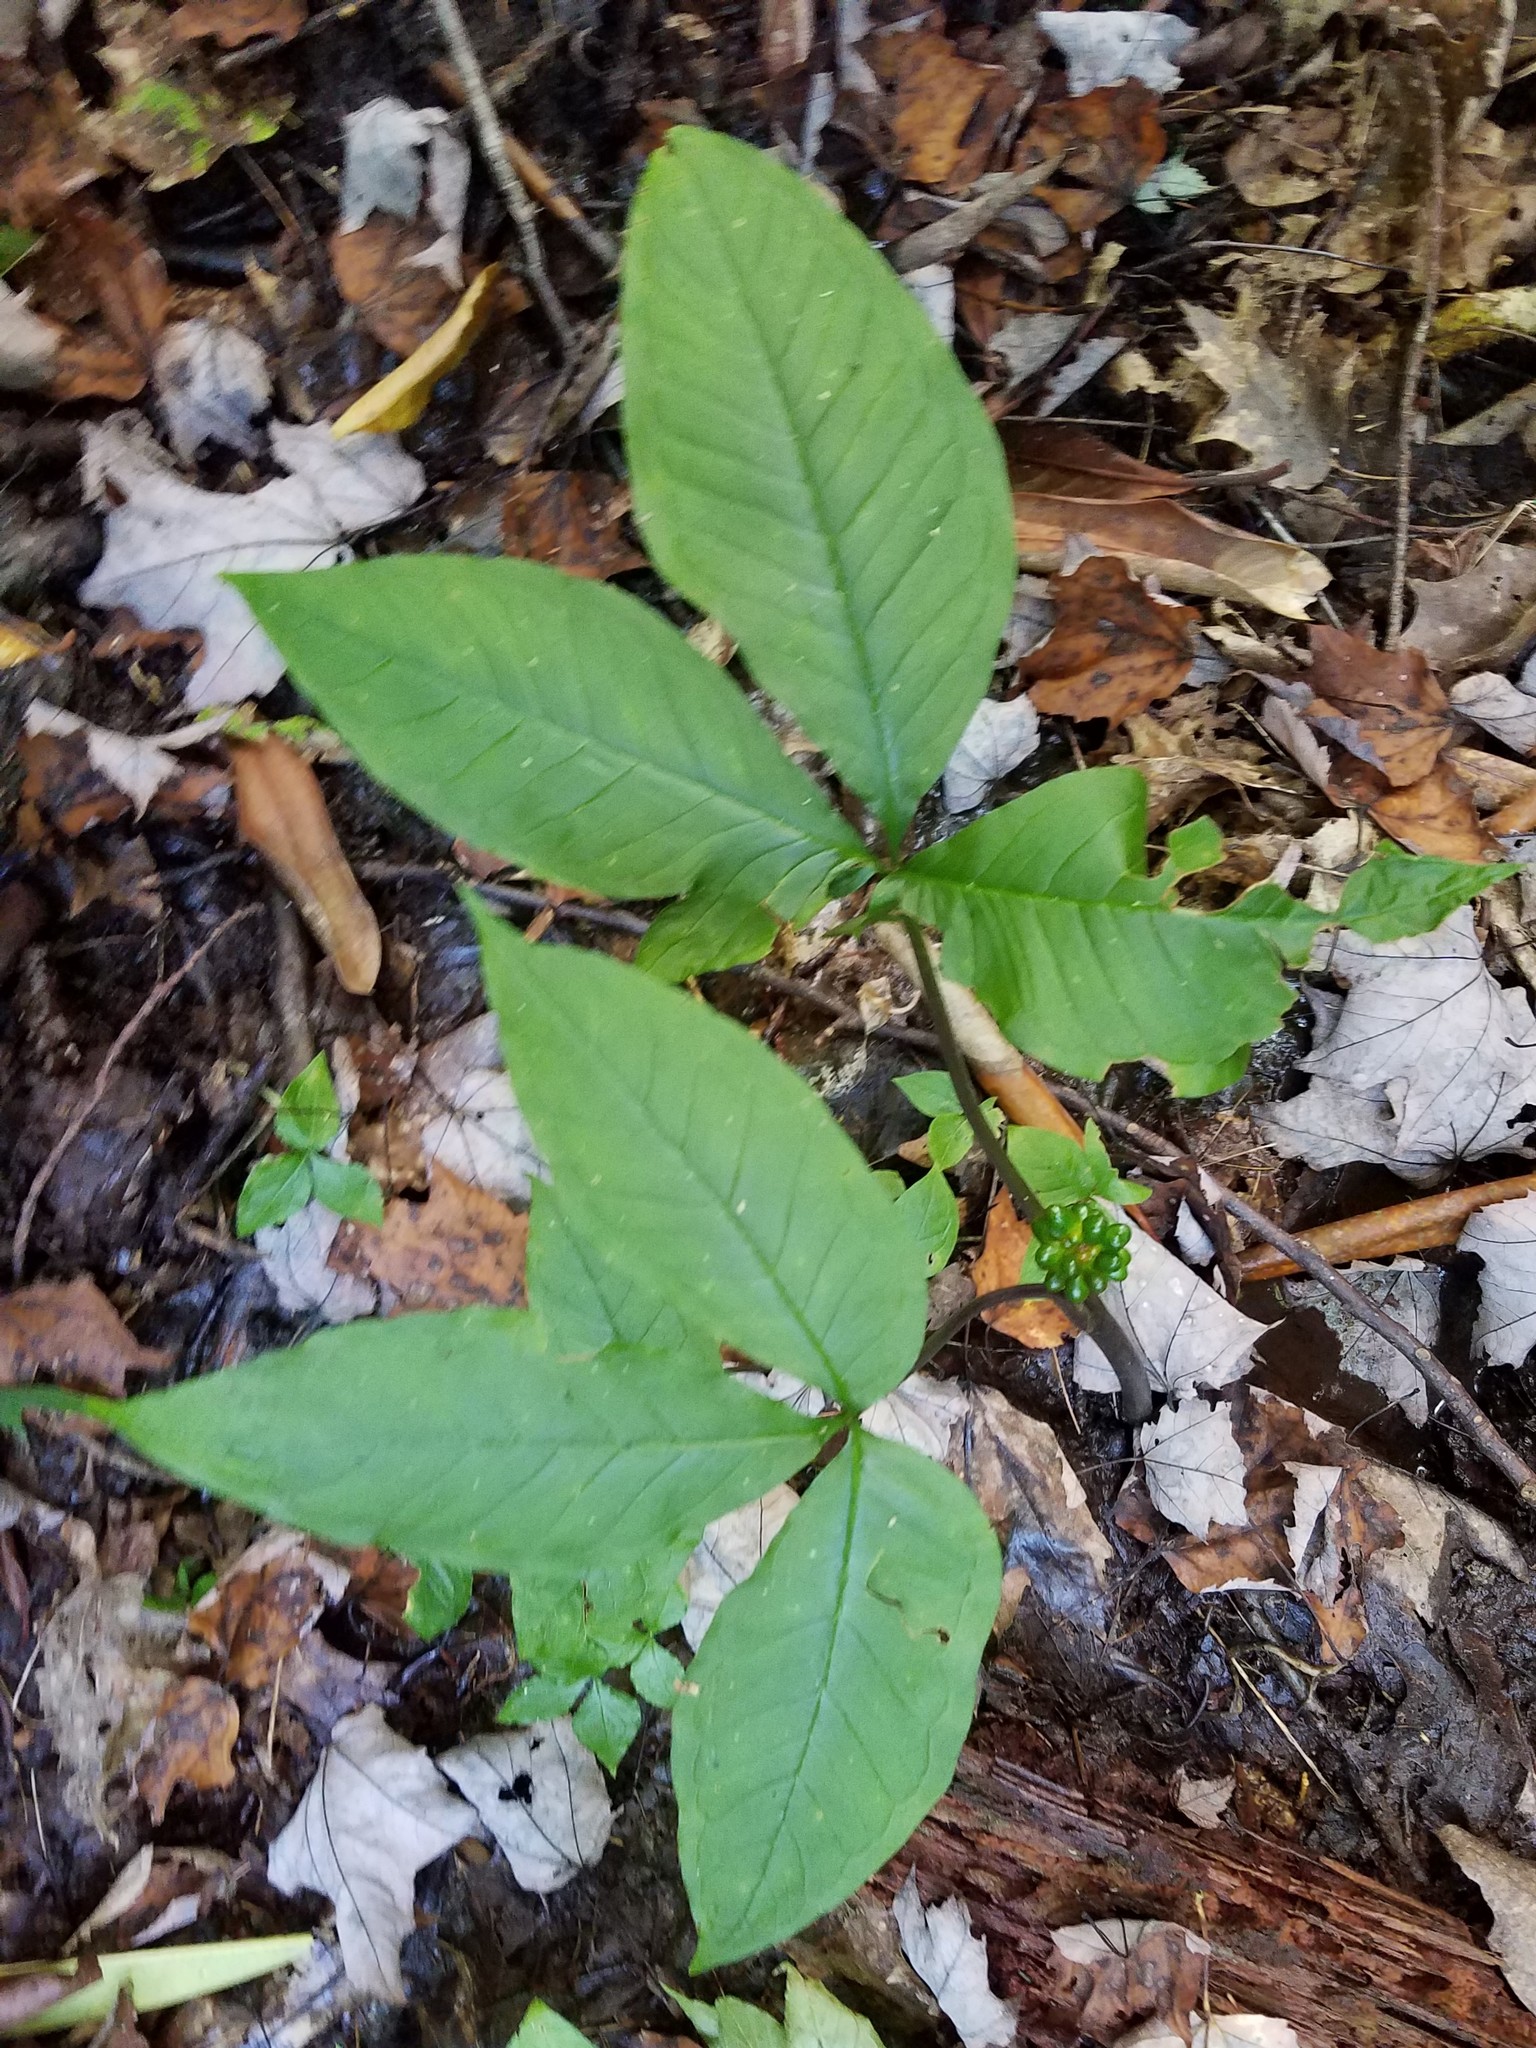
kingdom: Plantae
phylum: Tracheophyta
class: Liliopsida
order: Alismatales
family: Araceae
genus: Arisaema
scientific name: Arisaema triphyllum
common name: Jack-in-the-pulpit
